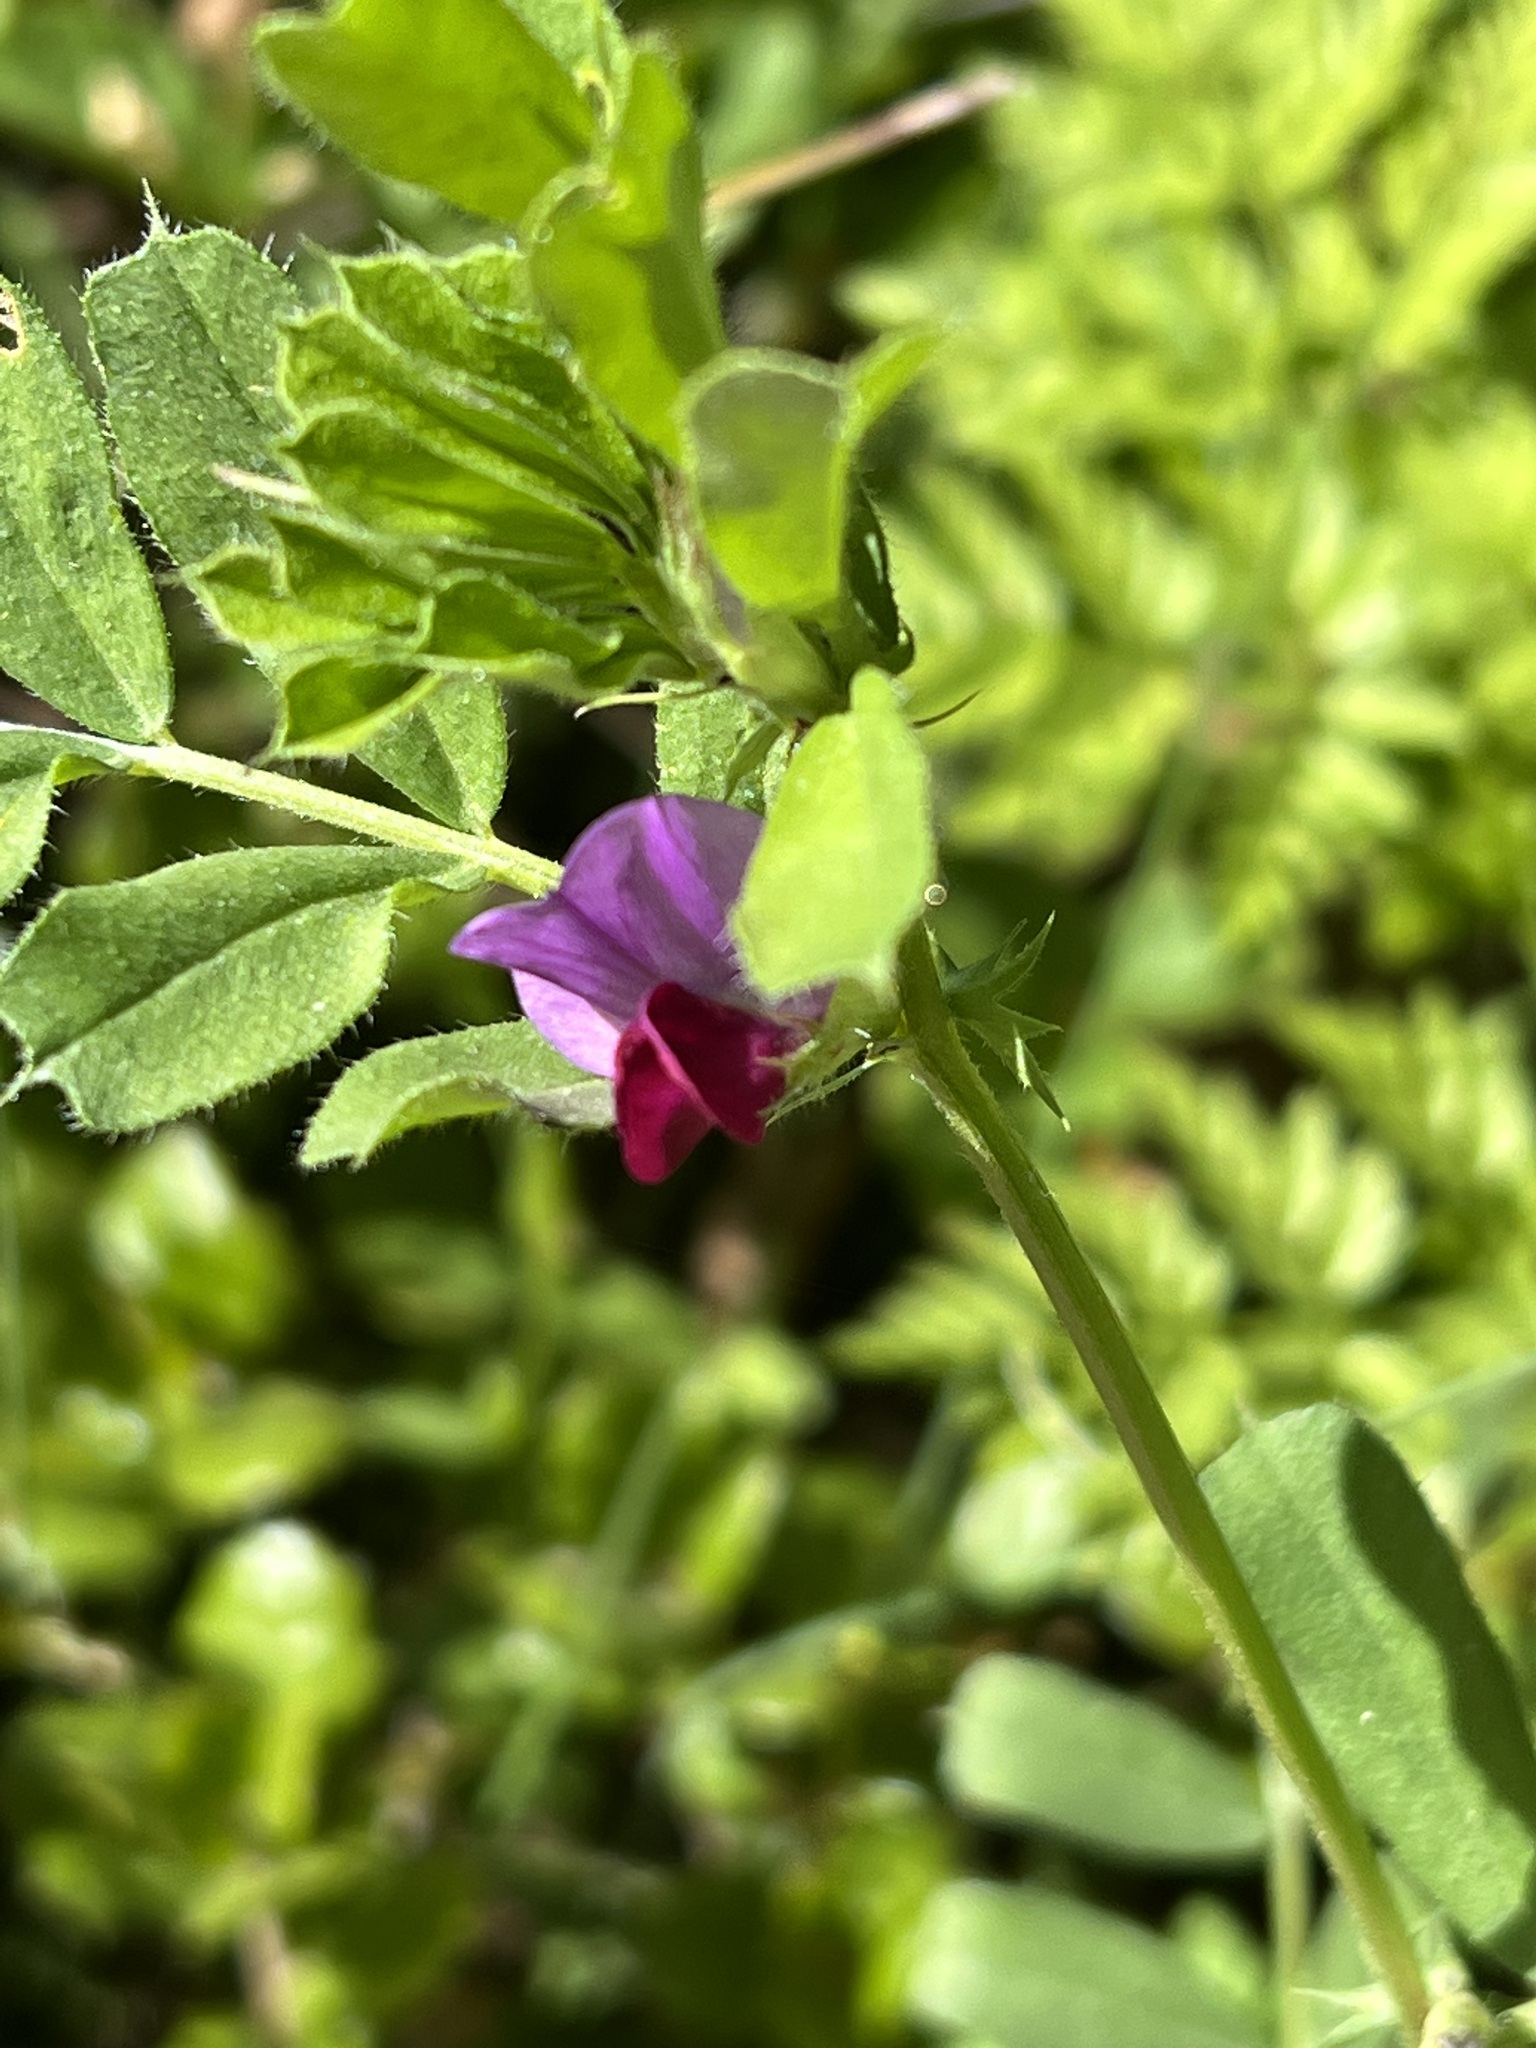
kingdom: Plantae
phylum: Tracheophyta
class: Magnoliopsida
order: Fabales
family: Fabaceae
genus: Vicia
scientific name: Vicia sativa
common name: Garden vetch
